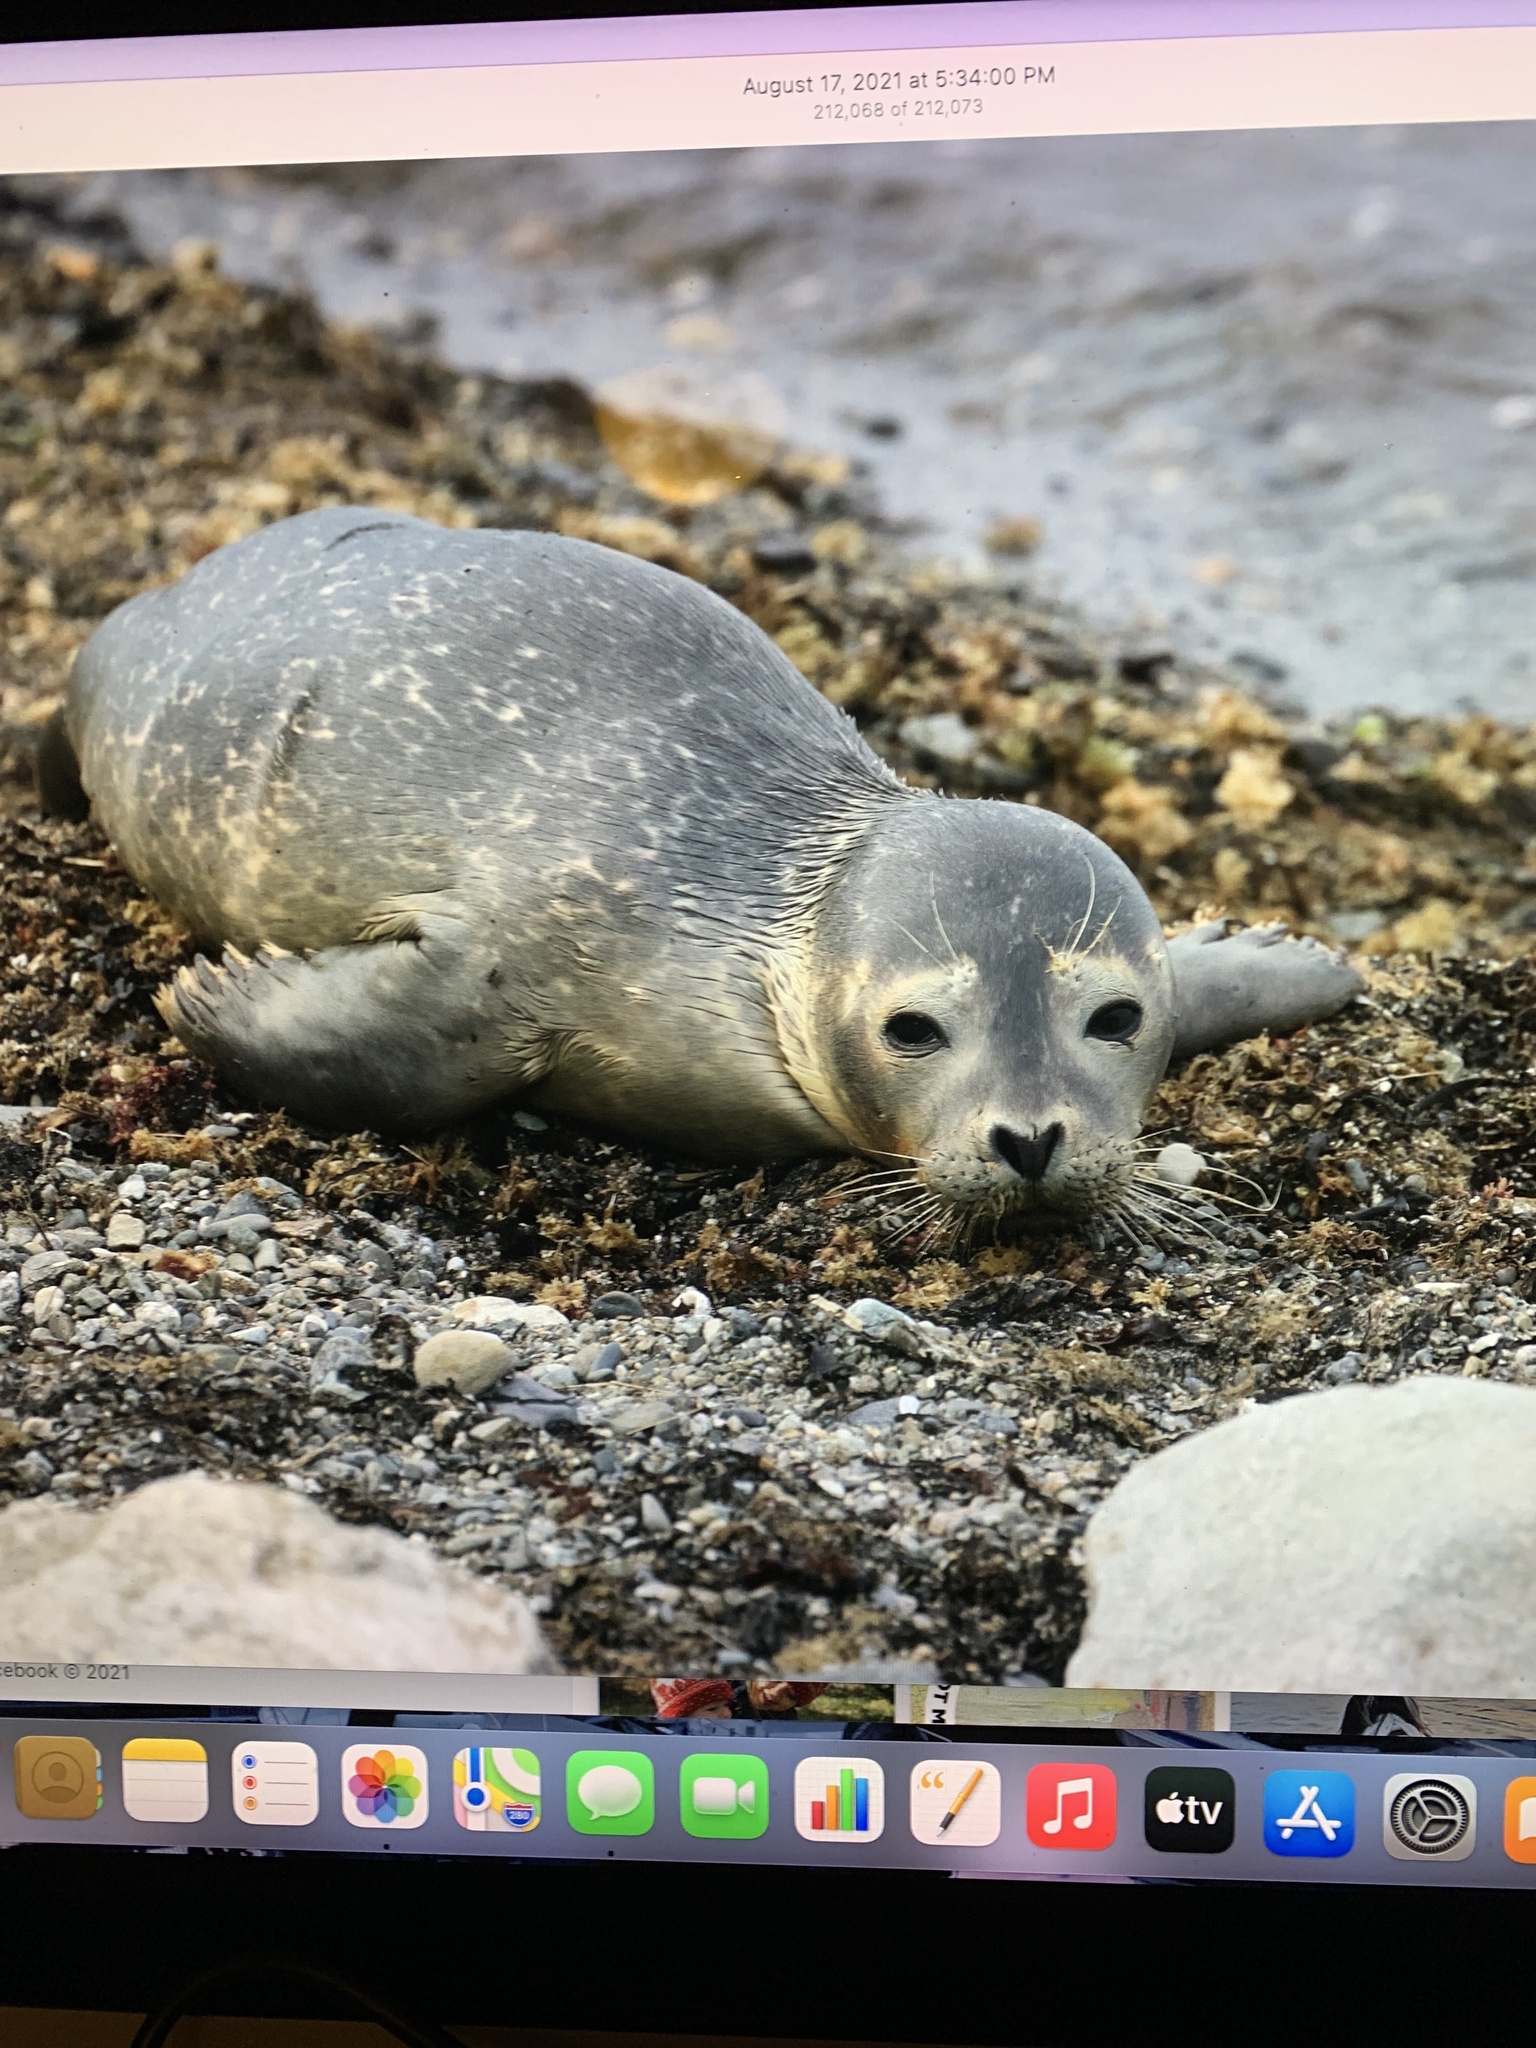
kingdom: Animalia
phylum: Chordata
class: Mammalia
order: Carnivora
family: Phocidae
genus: Phoca
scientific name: Phoca vitulina
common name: Harbor seal
